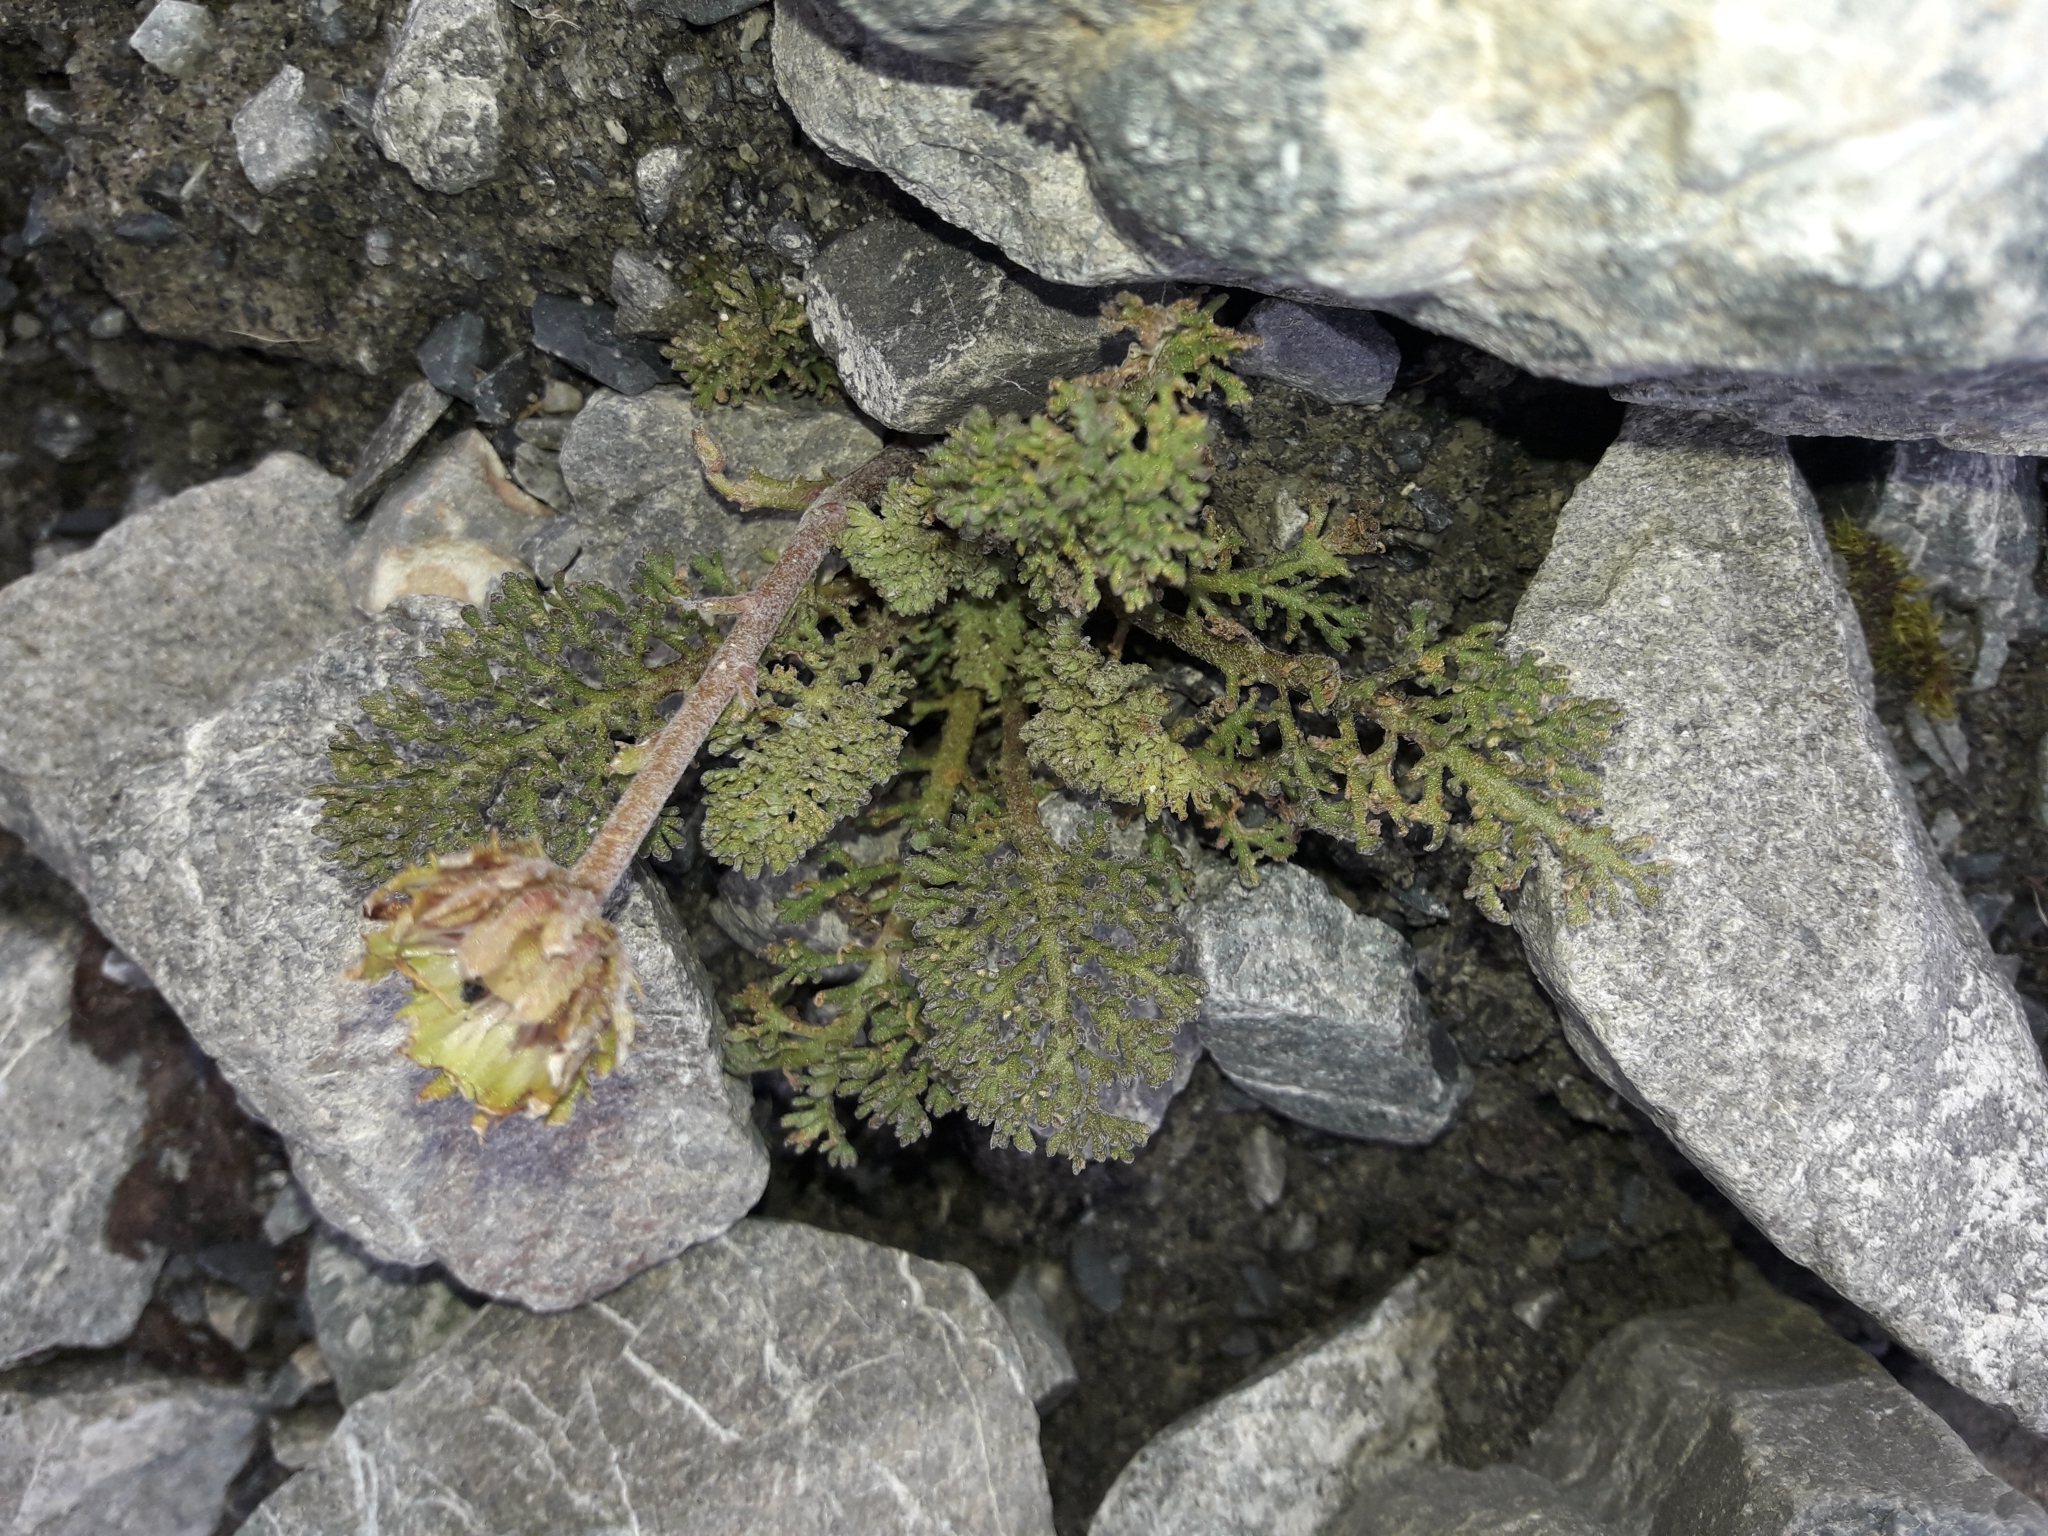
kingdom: Plantae
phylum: Tracheophyta
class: Magnoliopsida
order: Asterales
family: Asteraceae
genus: Leptinella
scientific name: Leptinella dendyi
